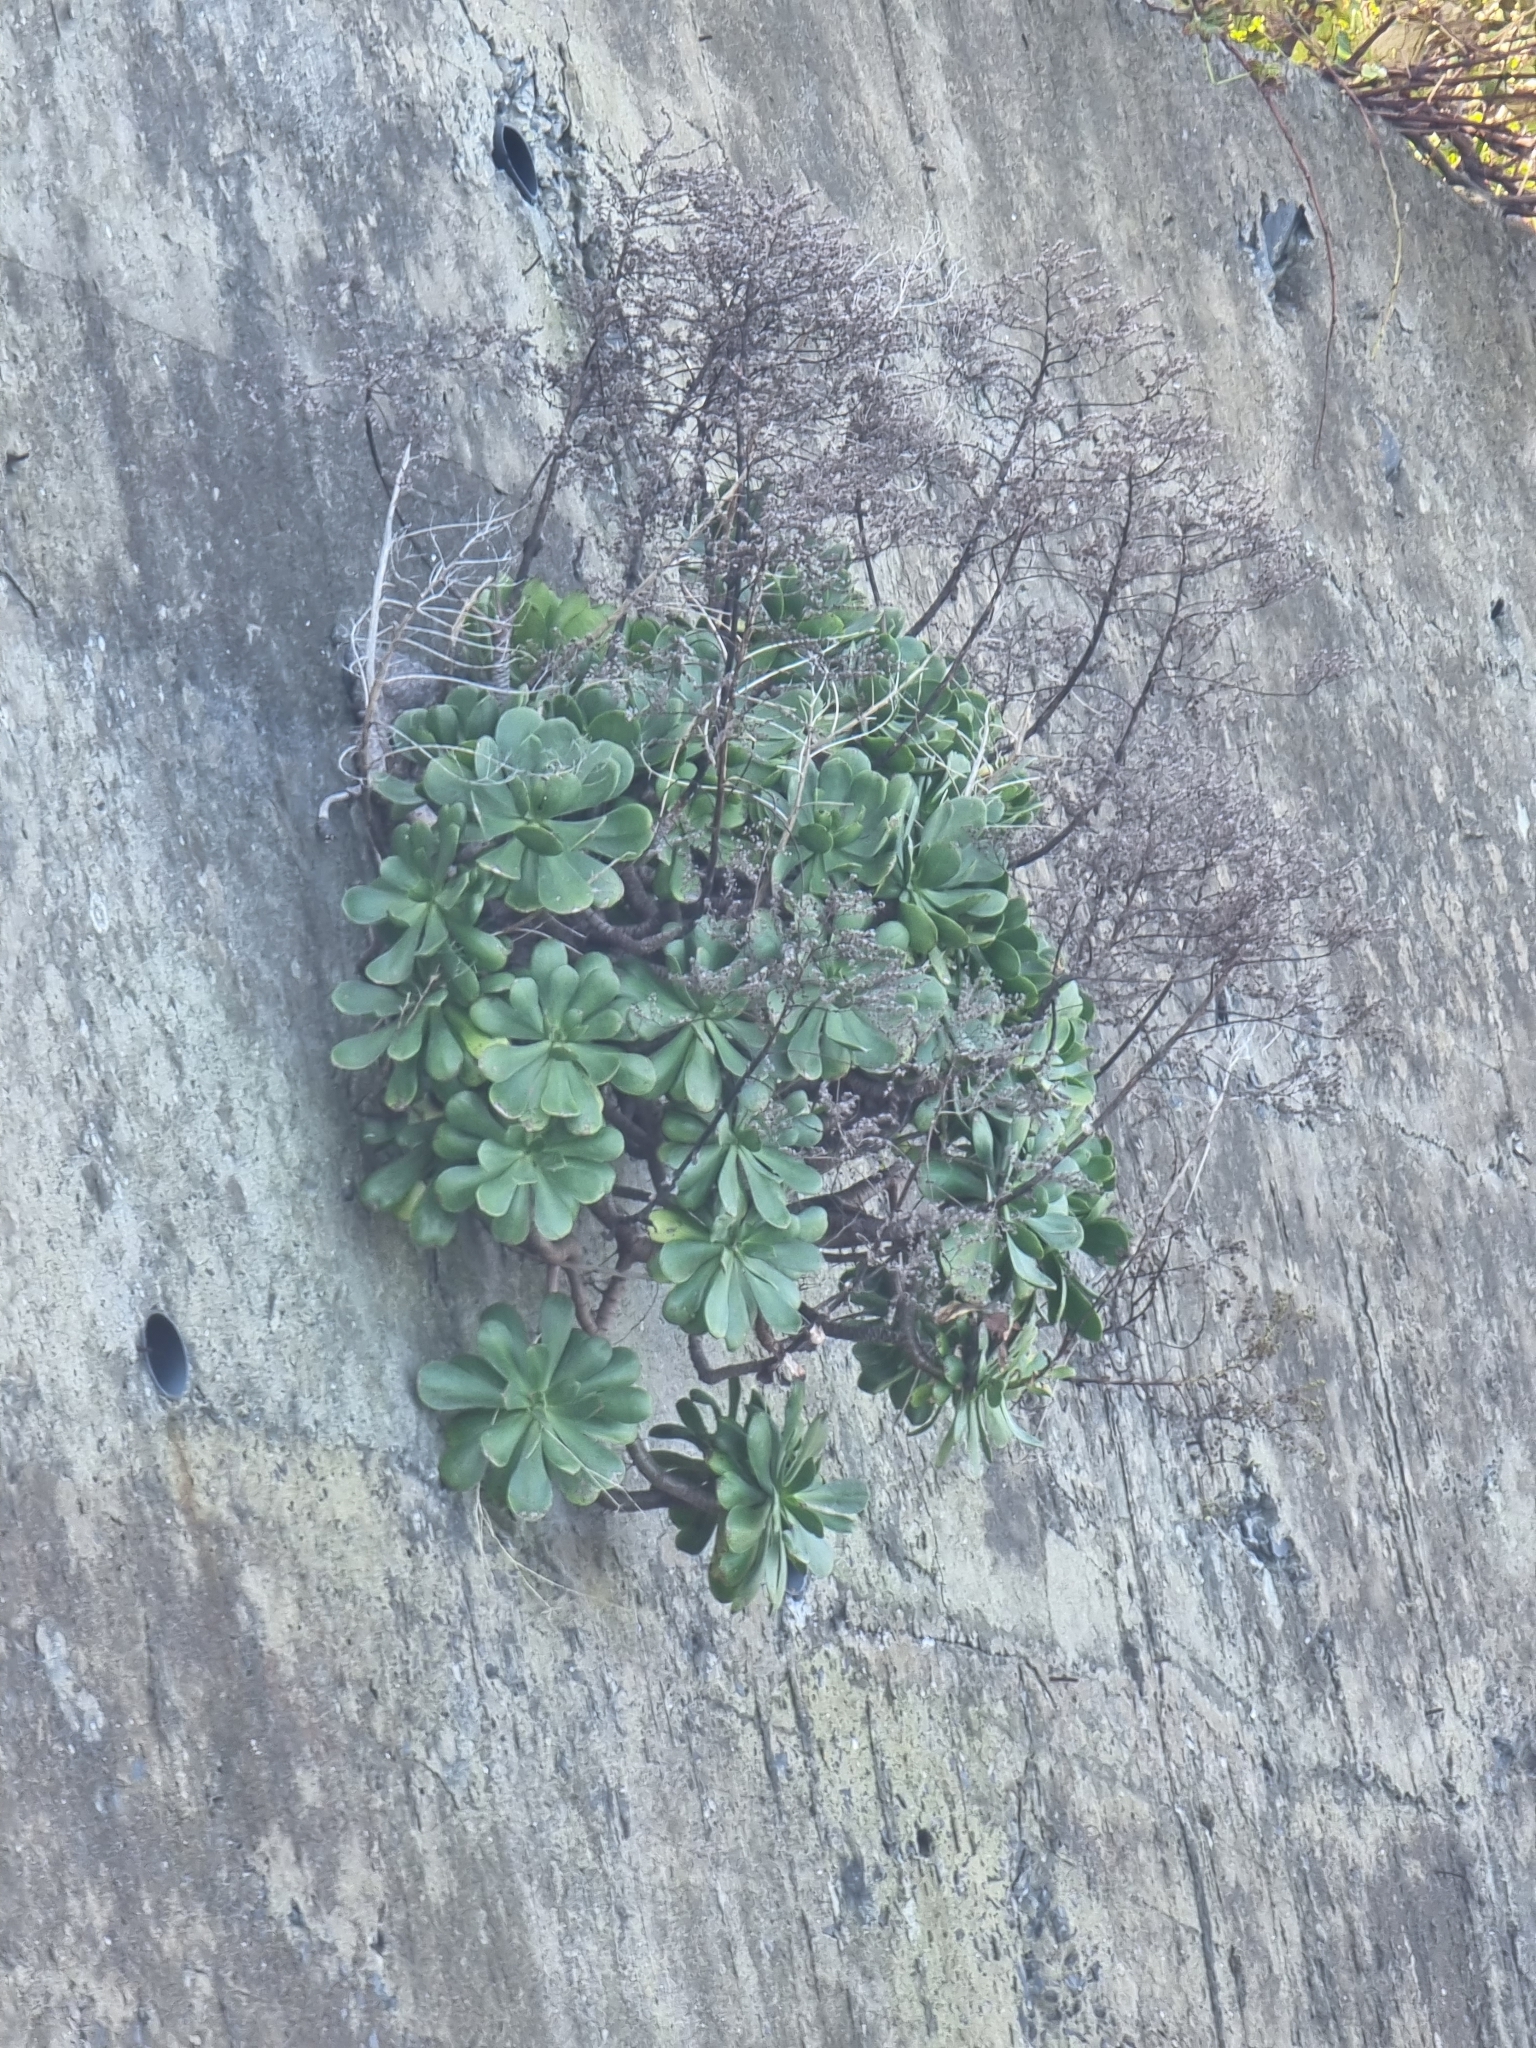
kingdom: Plantae
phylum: Tracheophyta
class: Magnoliopsida
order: Saxifragales
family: Crassulaceae
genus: Aeonium
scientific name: Aeonium glutinosum
